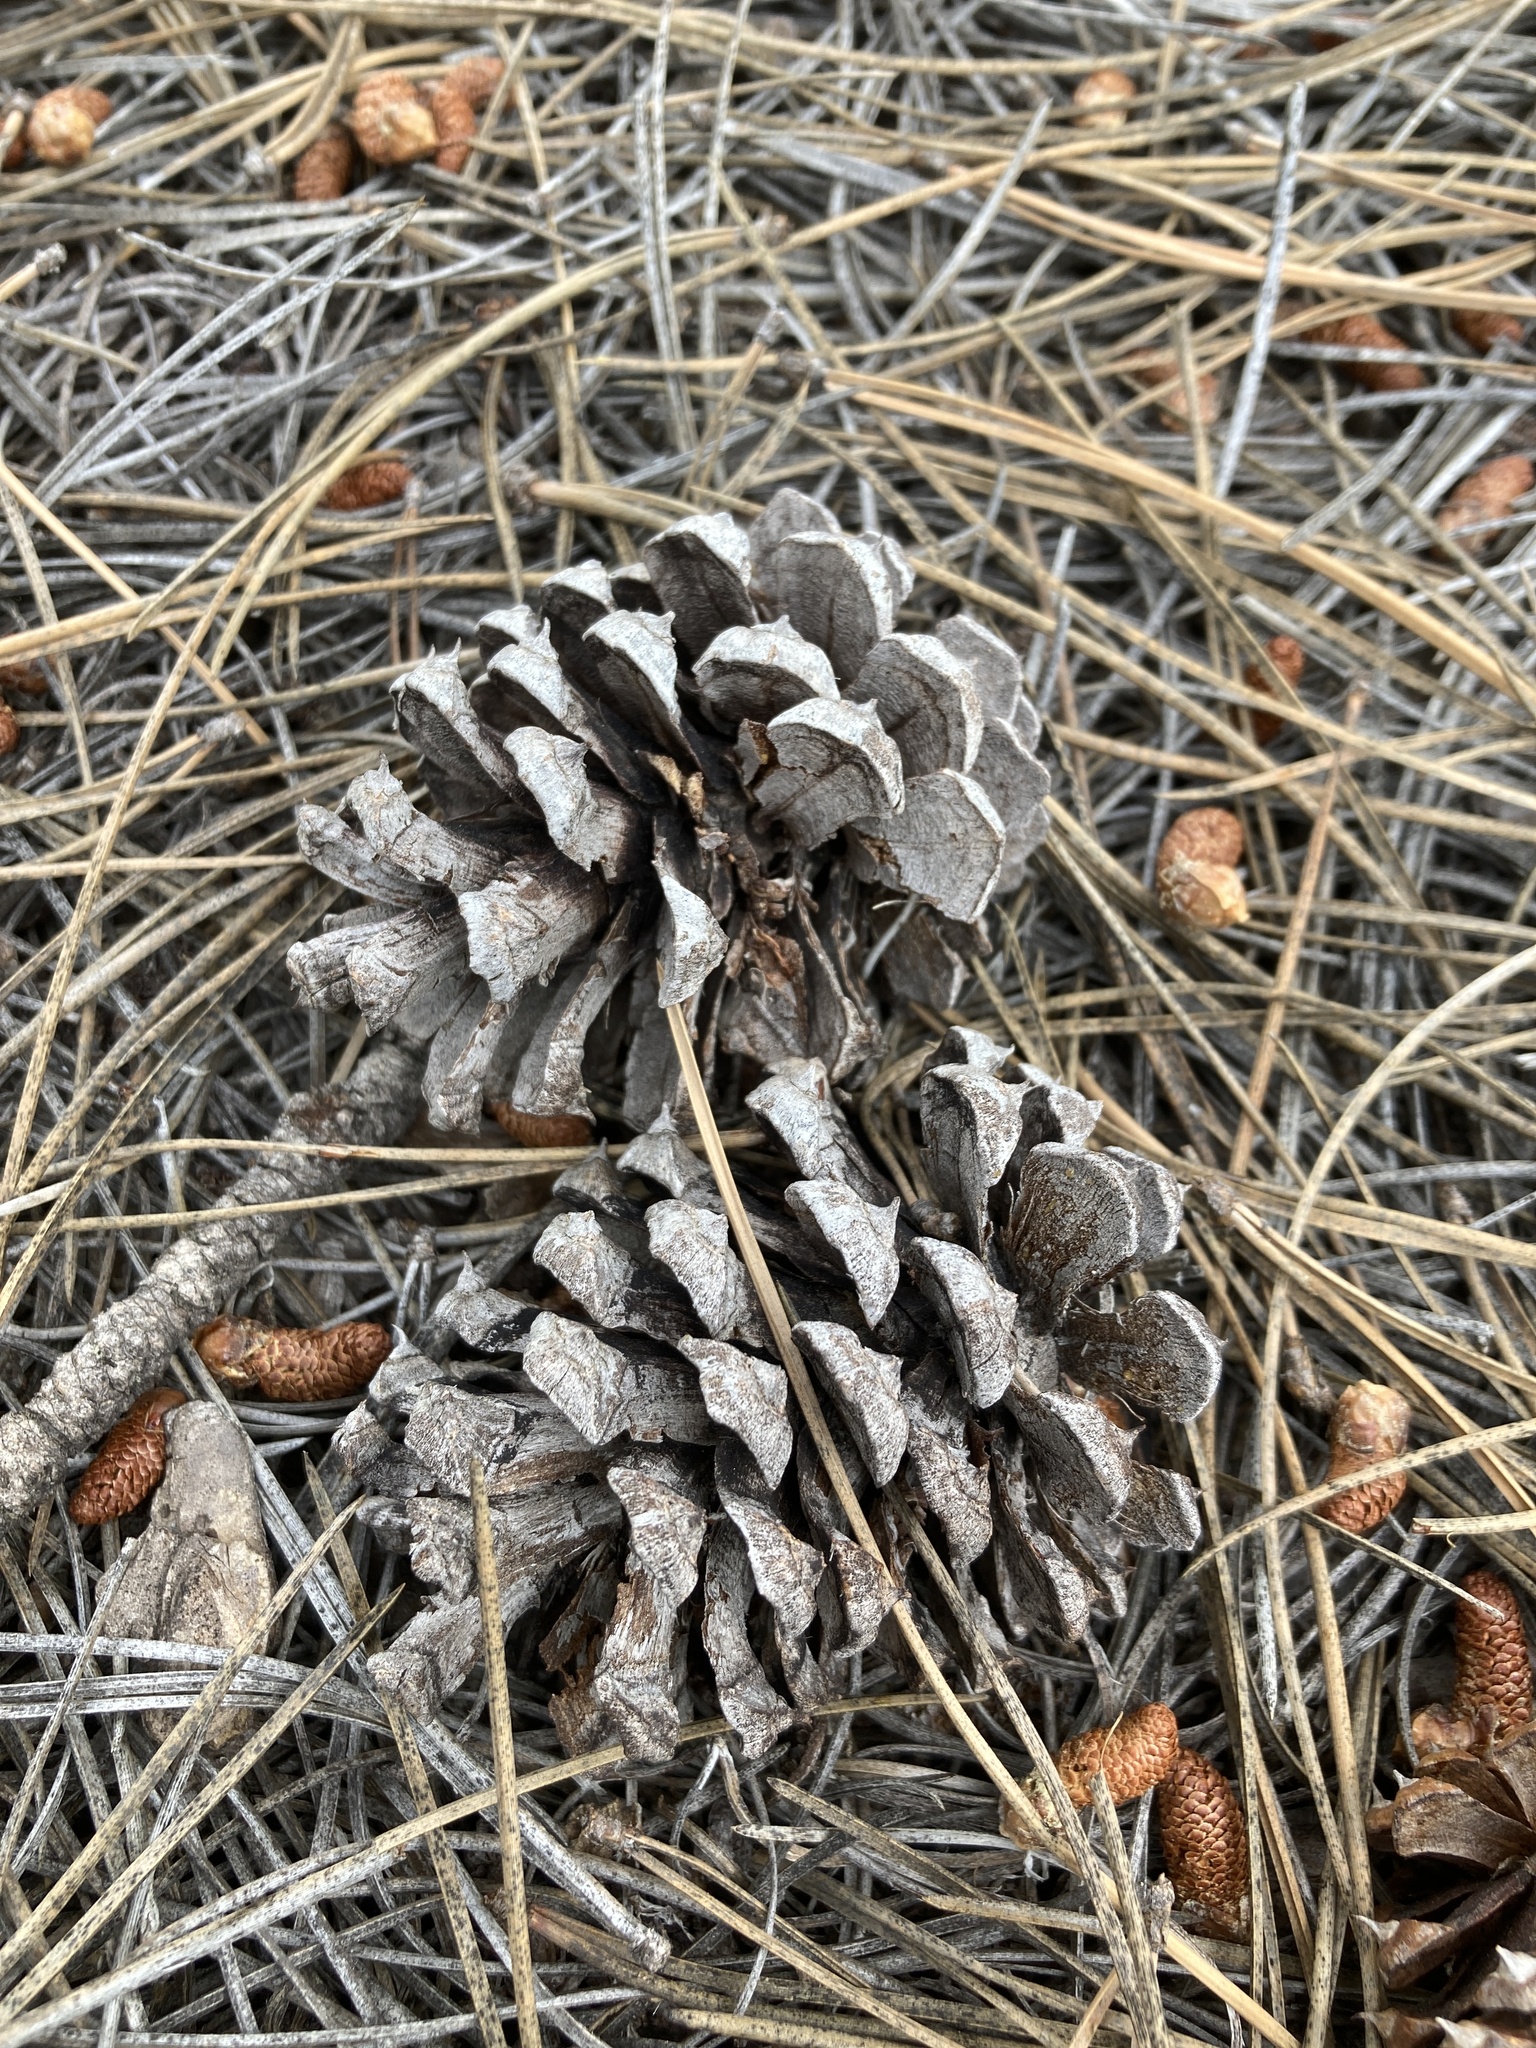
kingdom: Plantae
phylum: Tracheophyta
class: Pinopsida
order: Pinales
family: Pinaceae
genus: Pinus
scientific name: Pinus ponderosa
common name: Western yellow-pine
